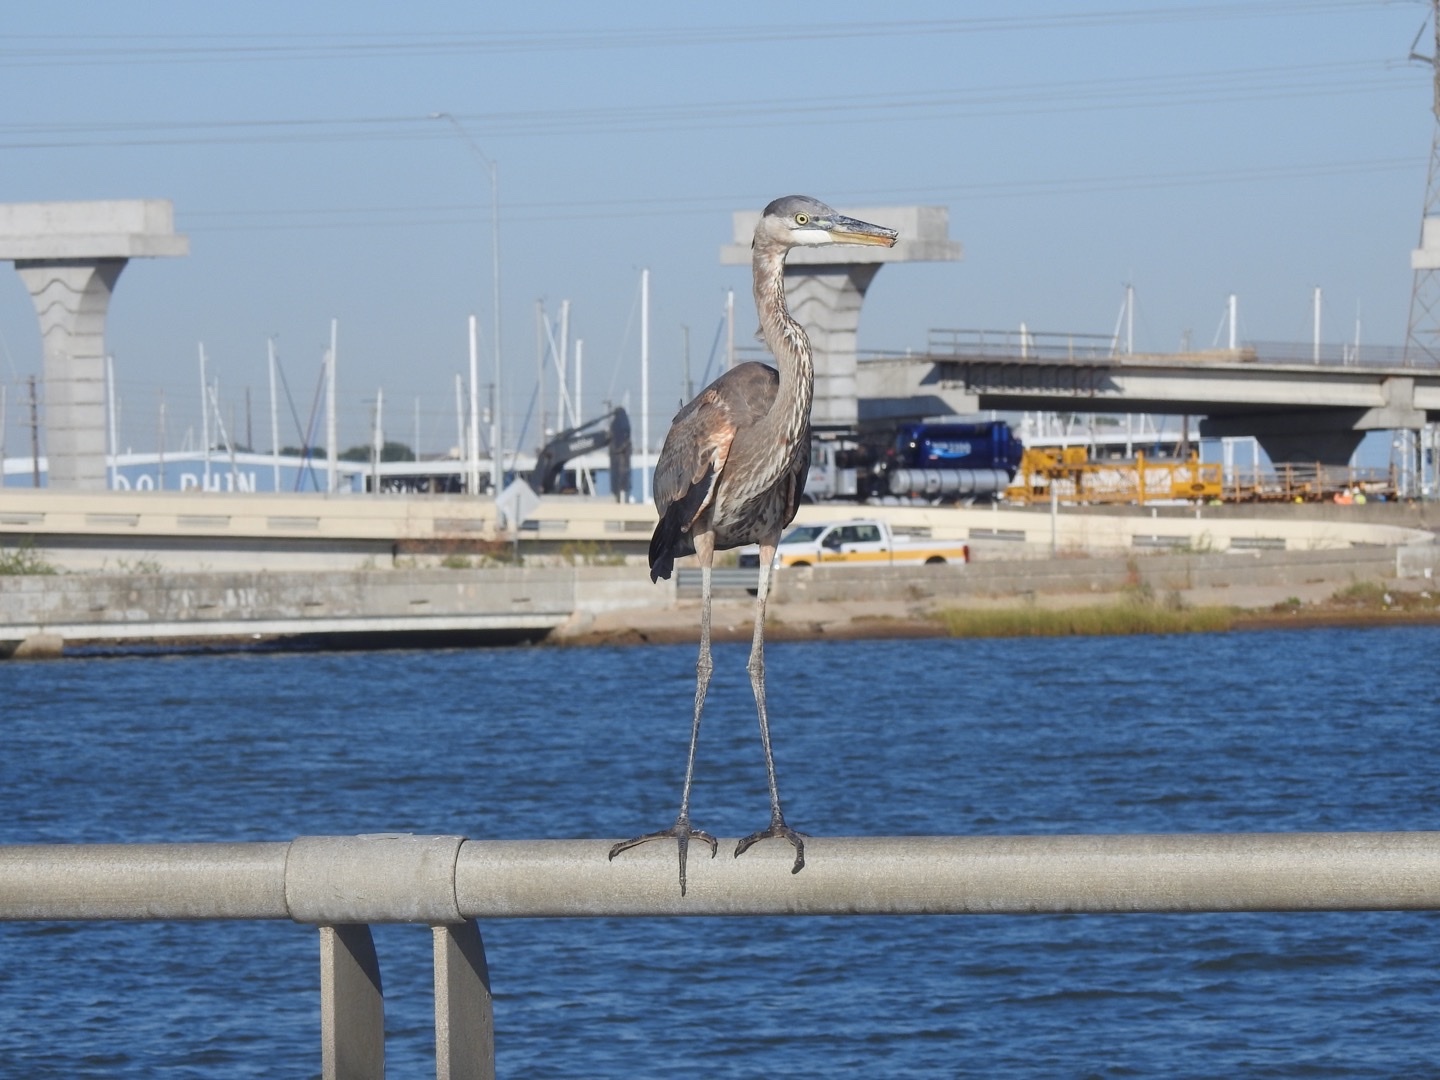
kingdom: Animalia
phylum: Chordata
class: Aves
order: Pelecaniformes
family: Ardeidae
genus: Ardea
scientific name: Ardea herodias
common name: Great blue heron
